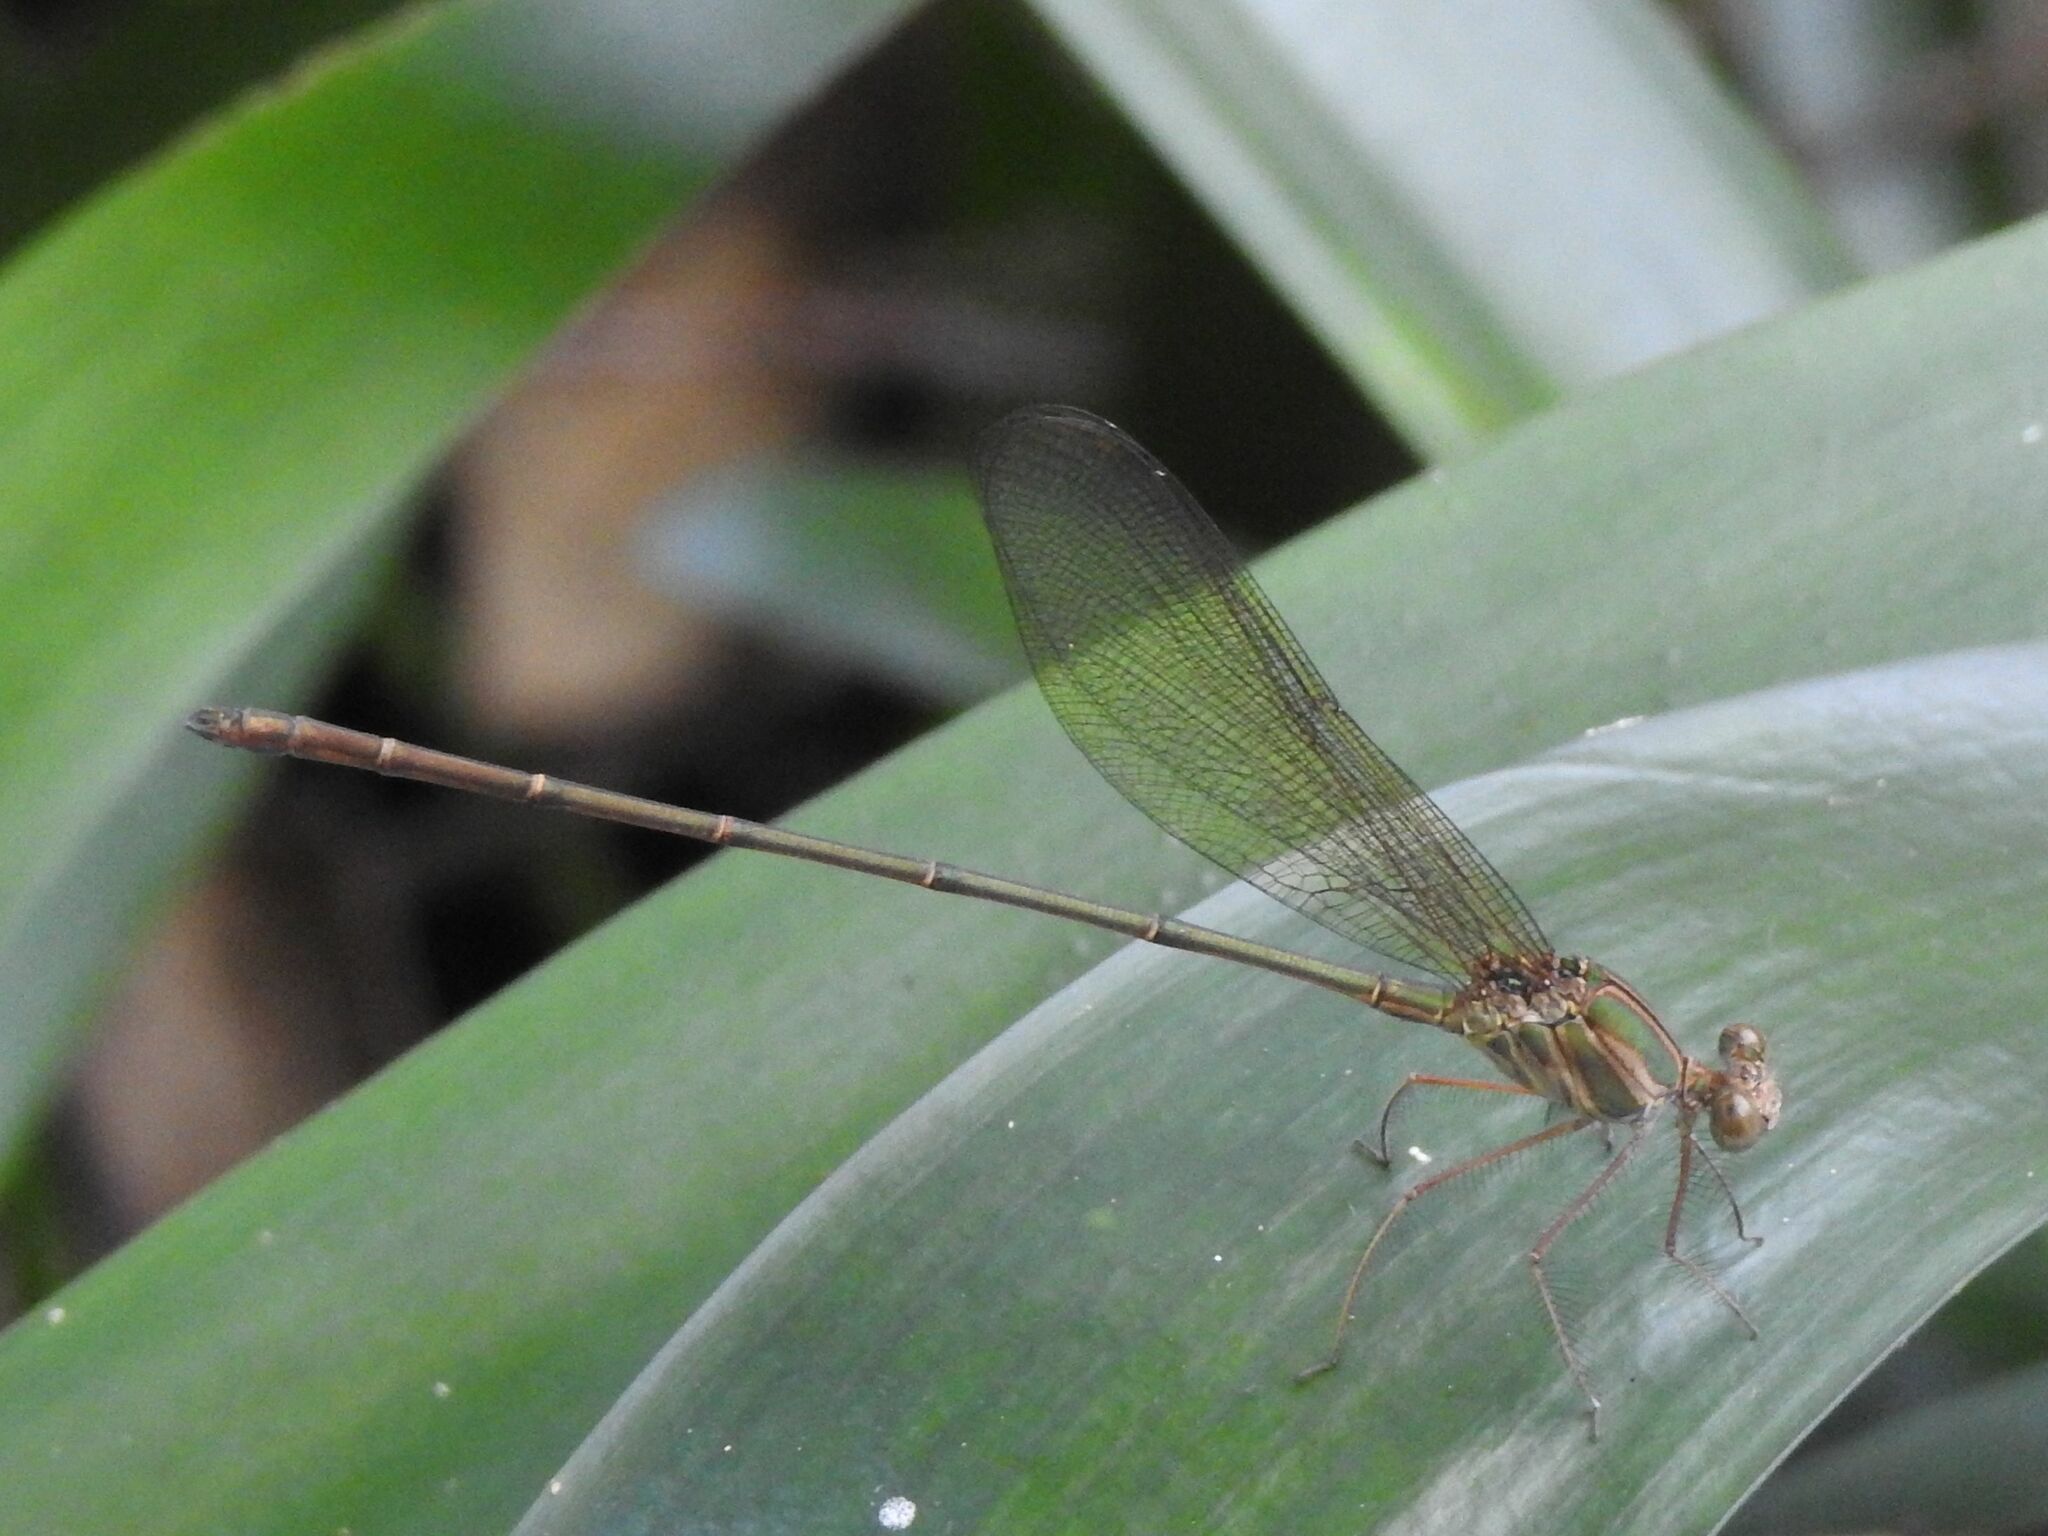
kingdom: Animalia
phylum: Arthropoda
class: Insecta
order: Odonata
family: Calopterygidae
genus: Phaon
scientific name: Phaon iridipennis
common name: Glistening demoiselle
